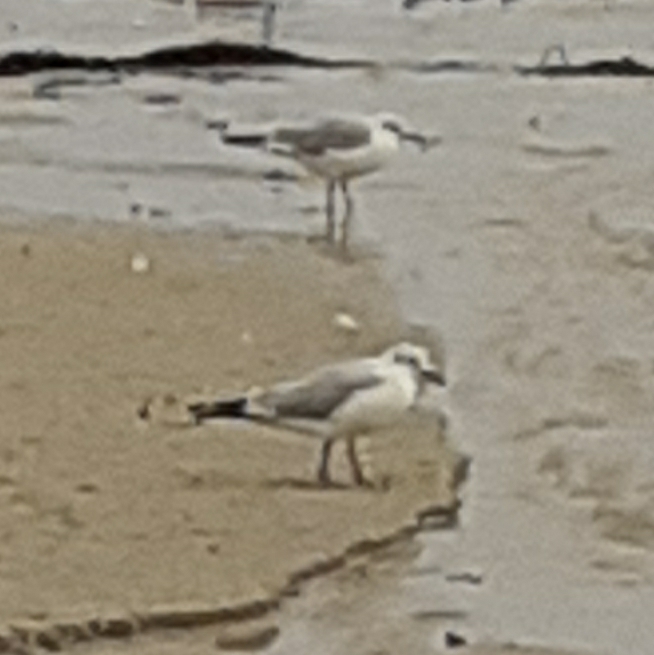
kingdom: Animalia
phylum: Chordata
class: Aves
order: Charadriiformes
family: Laridae
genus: Chroicocephalus
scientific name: Chroicocephalus ridibundus
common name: Black-headed gull
